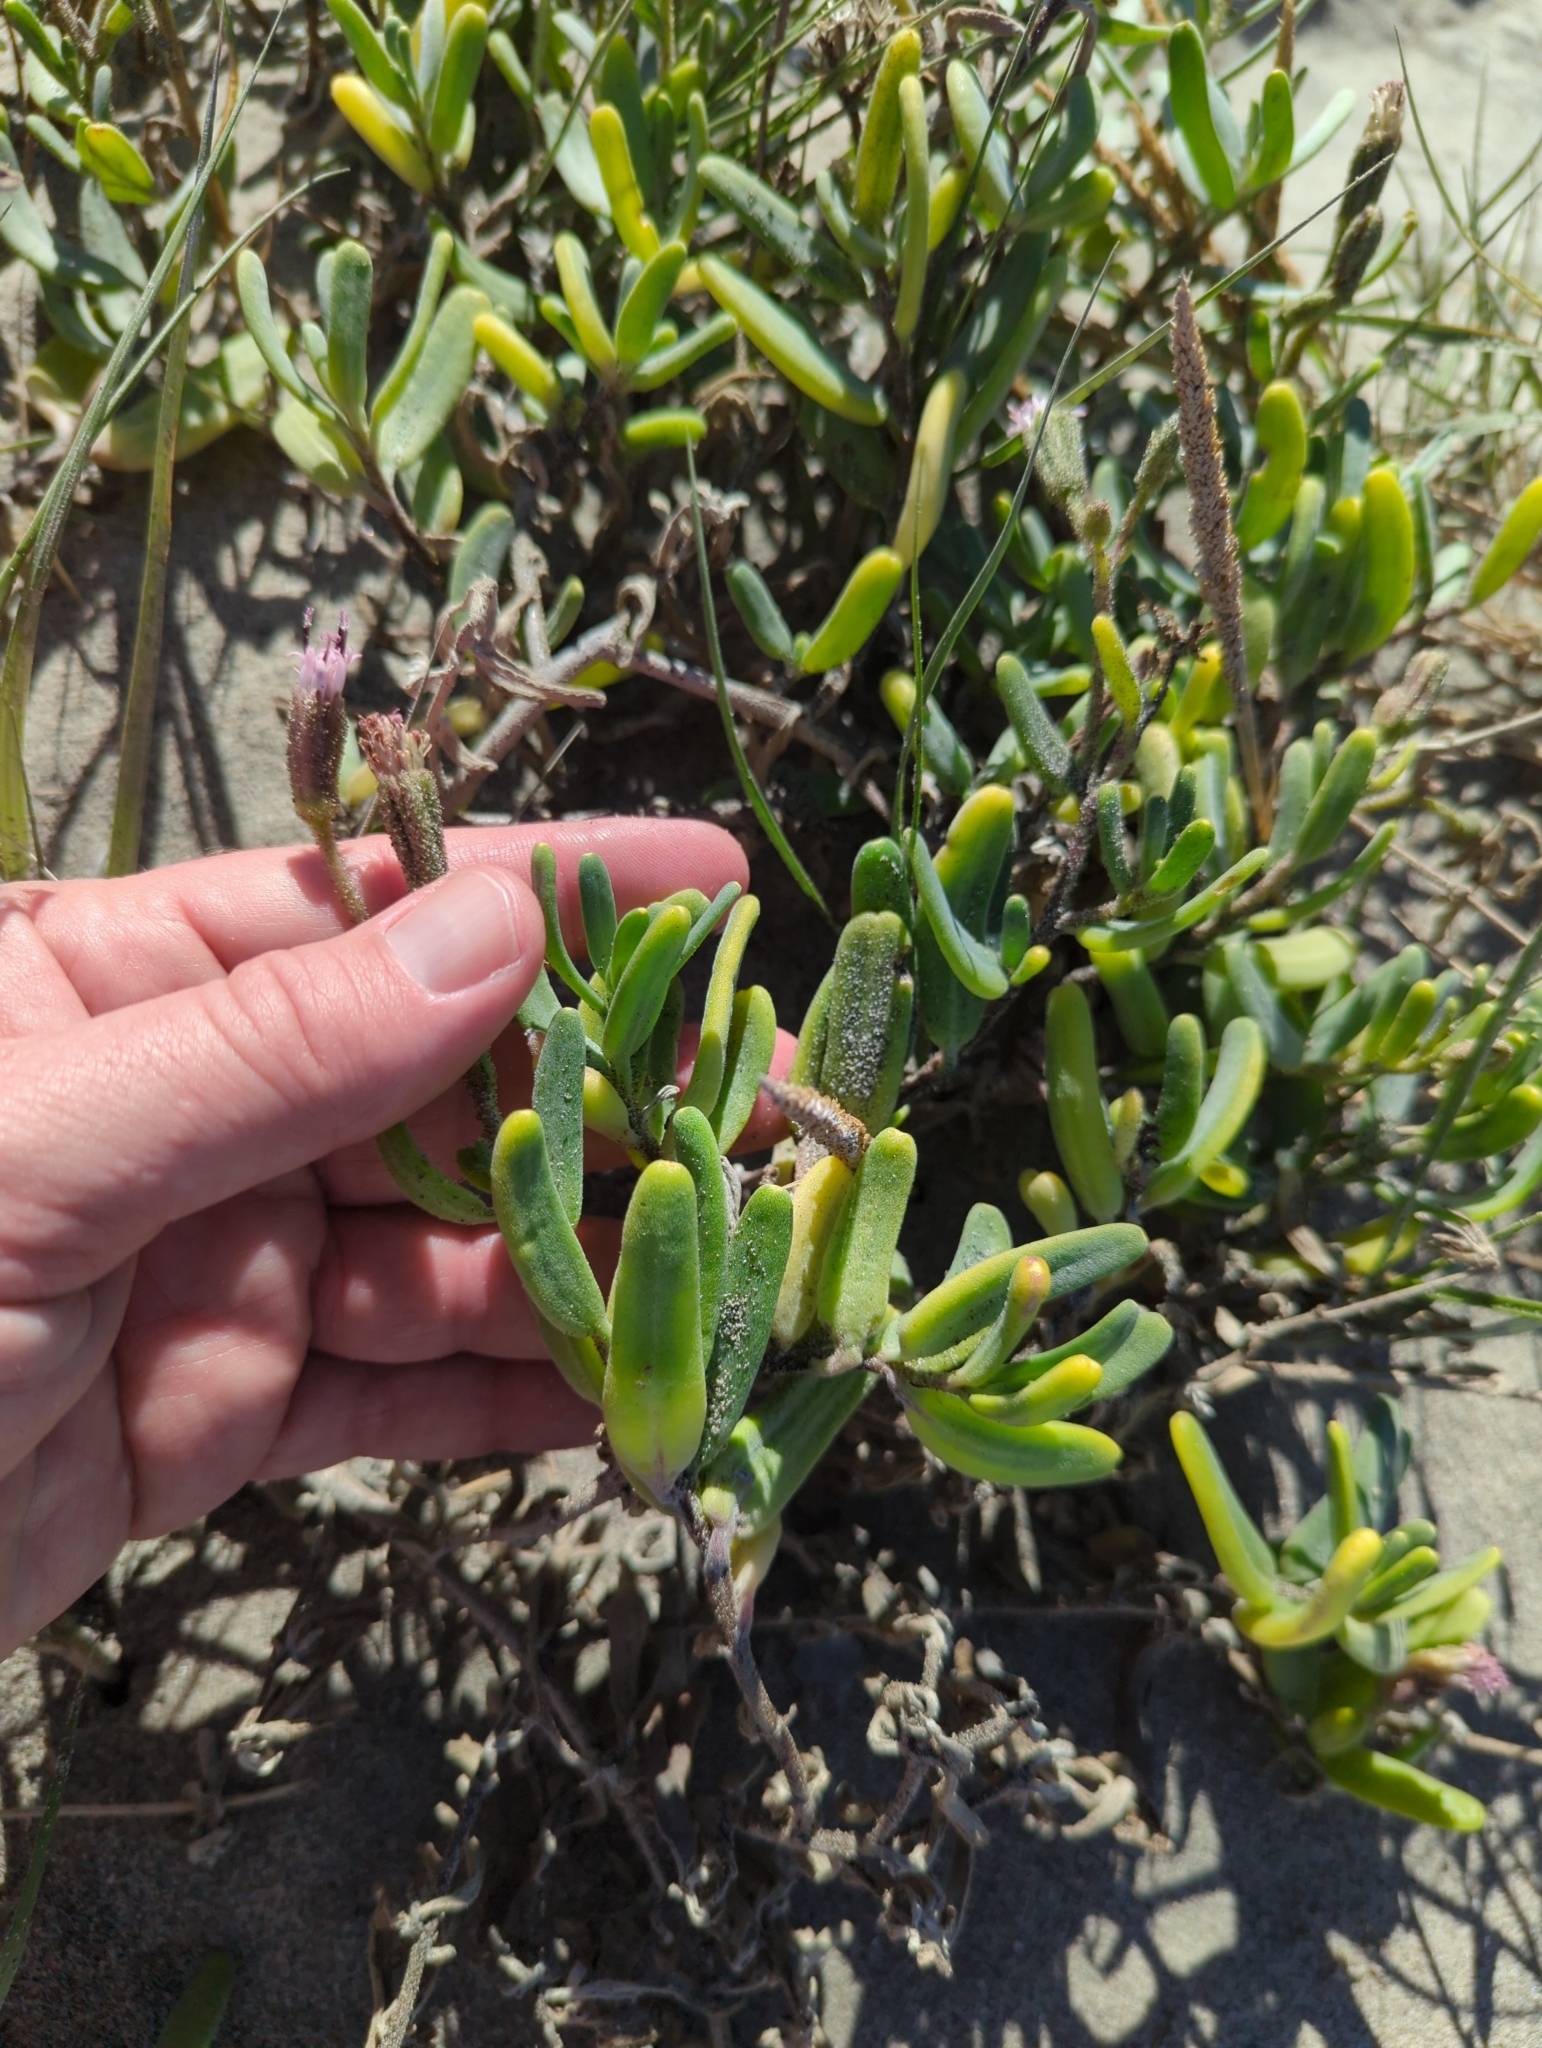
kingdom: Plantae
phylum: Tracheophyta
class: Magnoliopsida
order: Asterales
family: Asteraceae
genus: Palafoxia
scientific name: Palafoxia linearis
